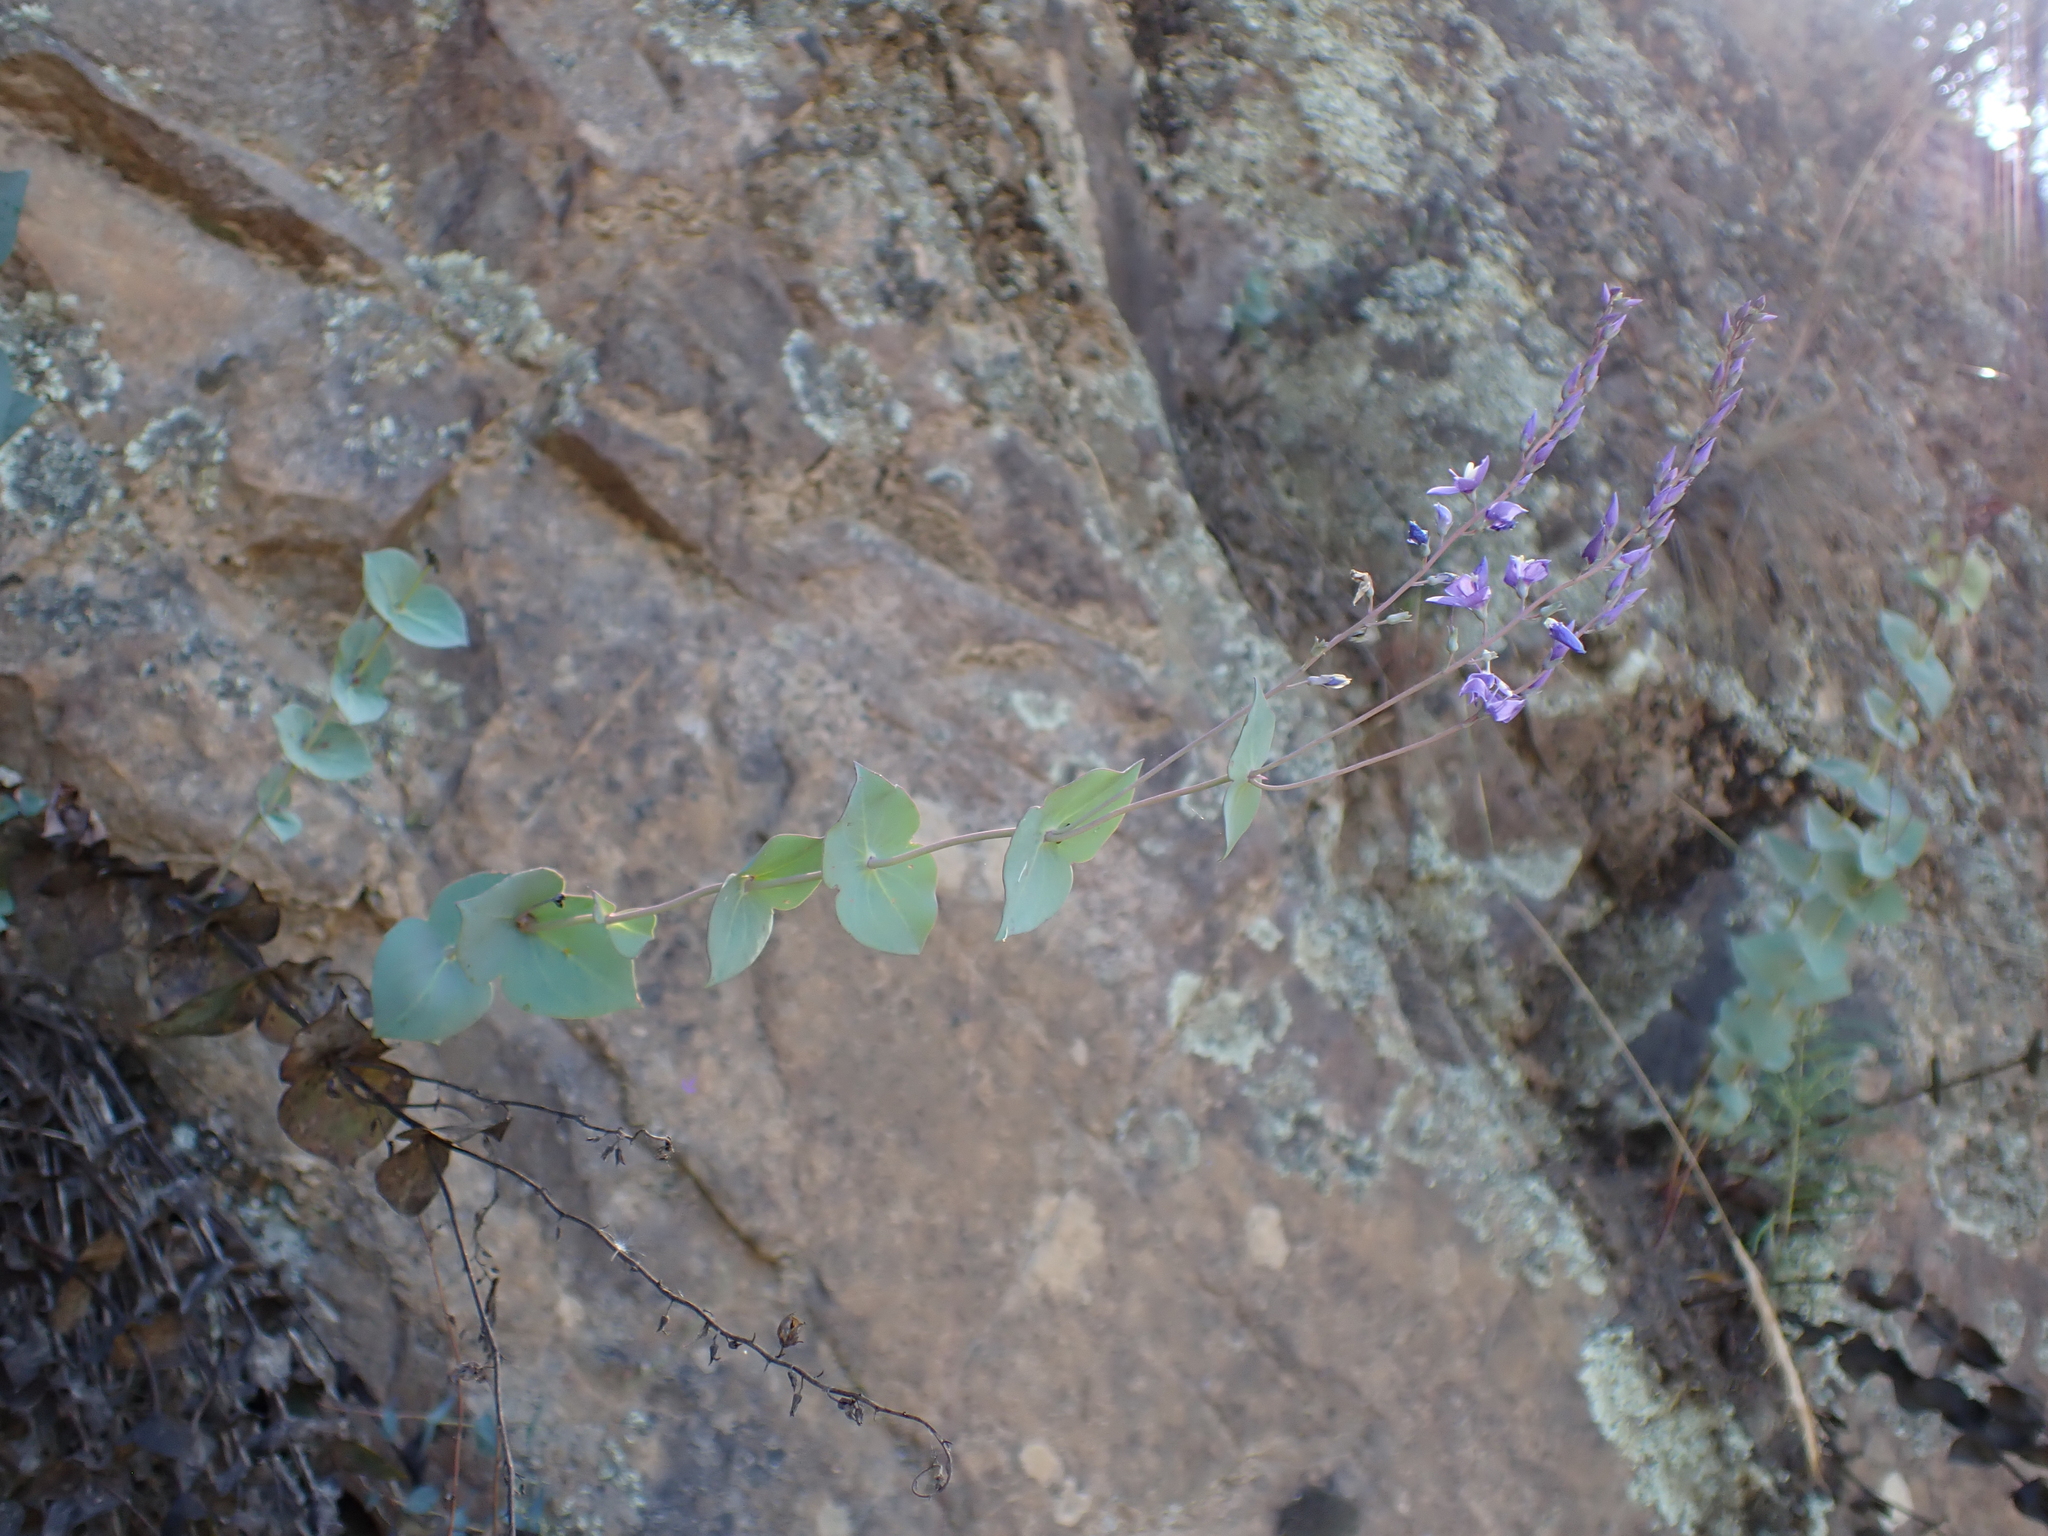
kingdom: Plantae
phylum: Tracheophyta
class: Magnoliopsida
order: Lamiales
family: Plantaginaceae
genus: Veronica
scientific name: Veronica perfoliata
